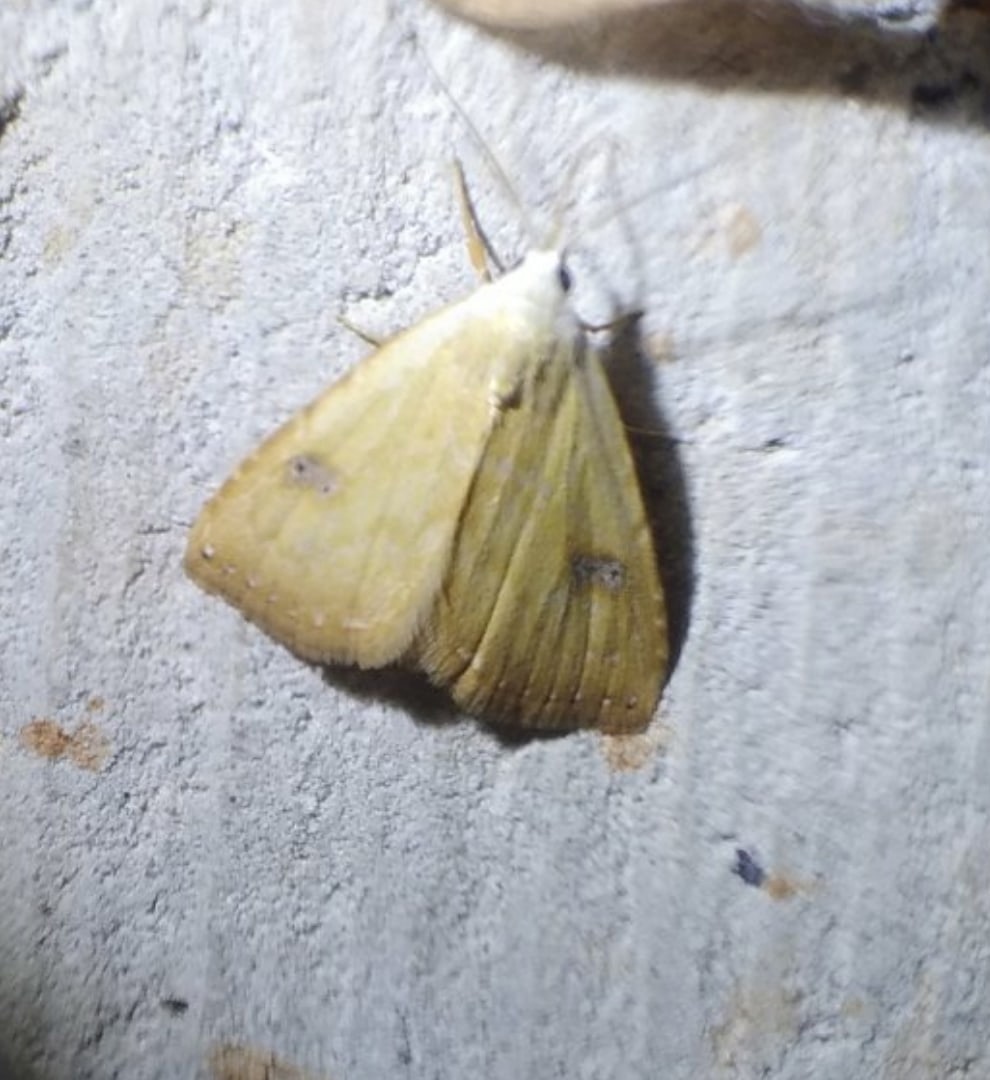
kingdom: Animalia
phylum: Arthropoda
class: Insecta
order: Lepidoptera
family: Erebidae
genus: Rivula
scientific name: Rivula sericealis
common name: Straw dot
